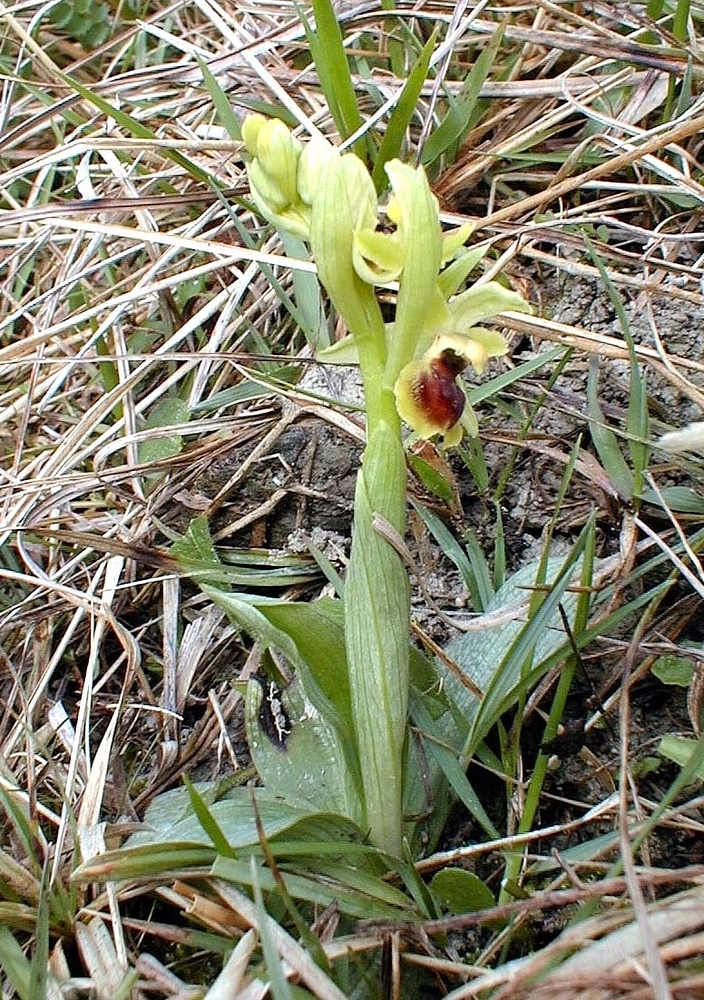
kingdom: Plantae
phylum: Tracheophyta
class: Liliopsida
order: Asparagales
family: Orchidaceae
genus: Ophrys
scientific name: Ophrys araneola
